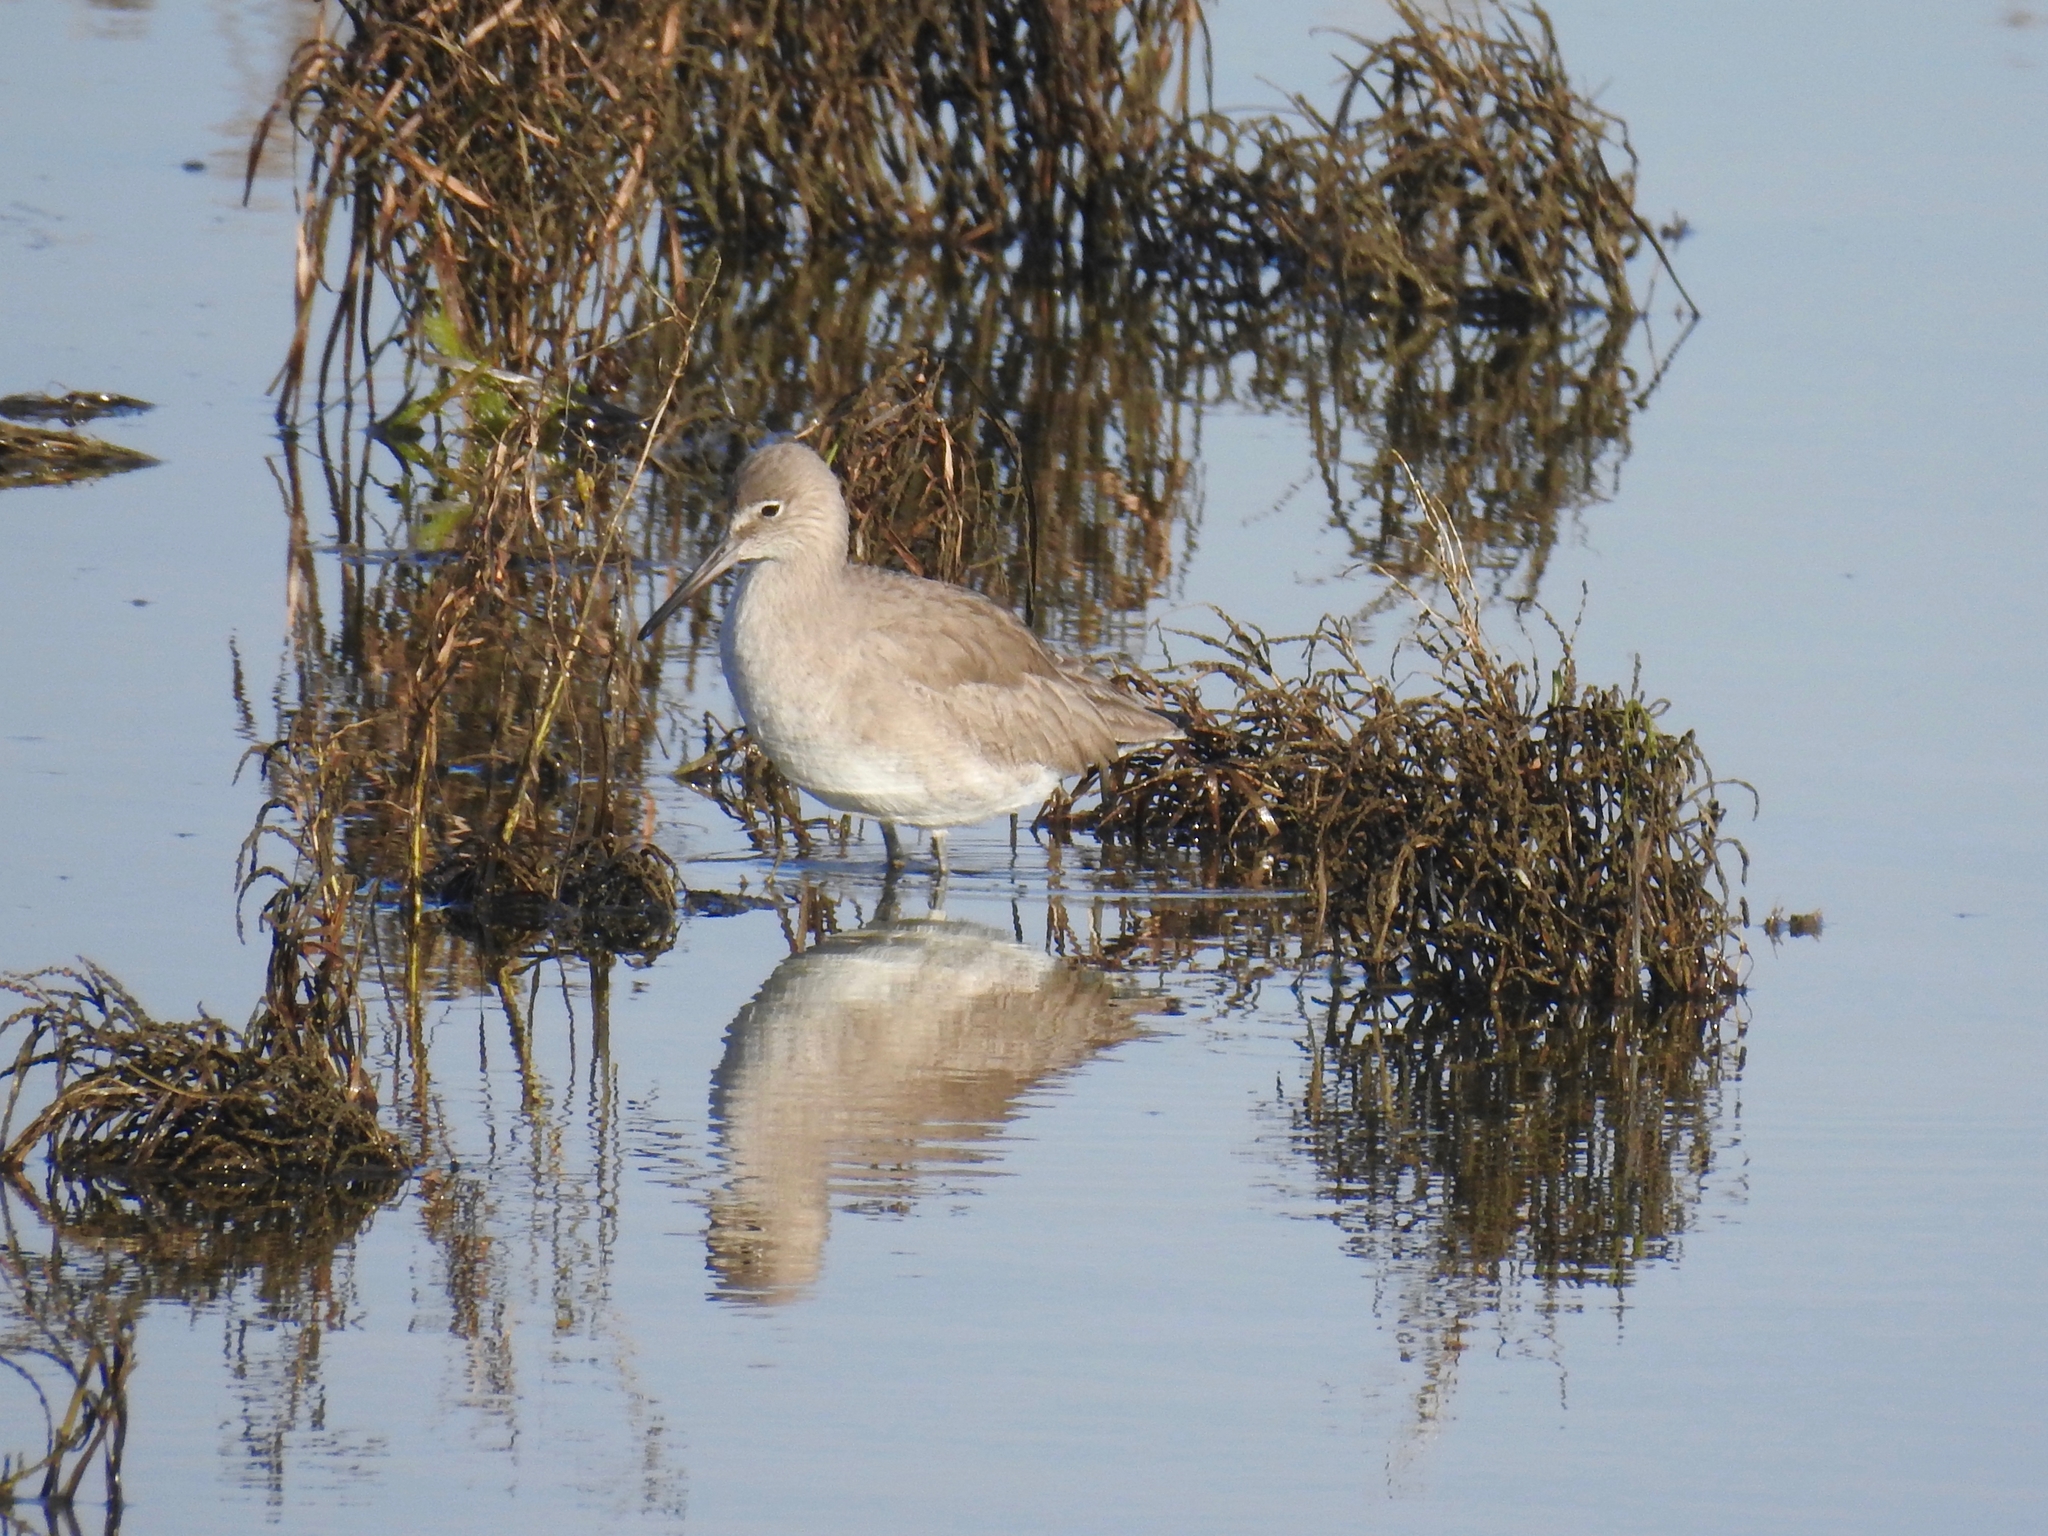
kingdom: Animalia
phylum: Chordata
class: Aves
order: Charadriiformes
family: Scolopacidae
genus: Tringa
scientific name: Tringa semipalmata
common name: Willet
